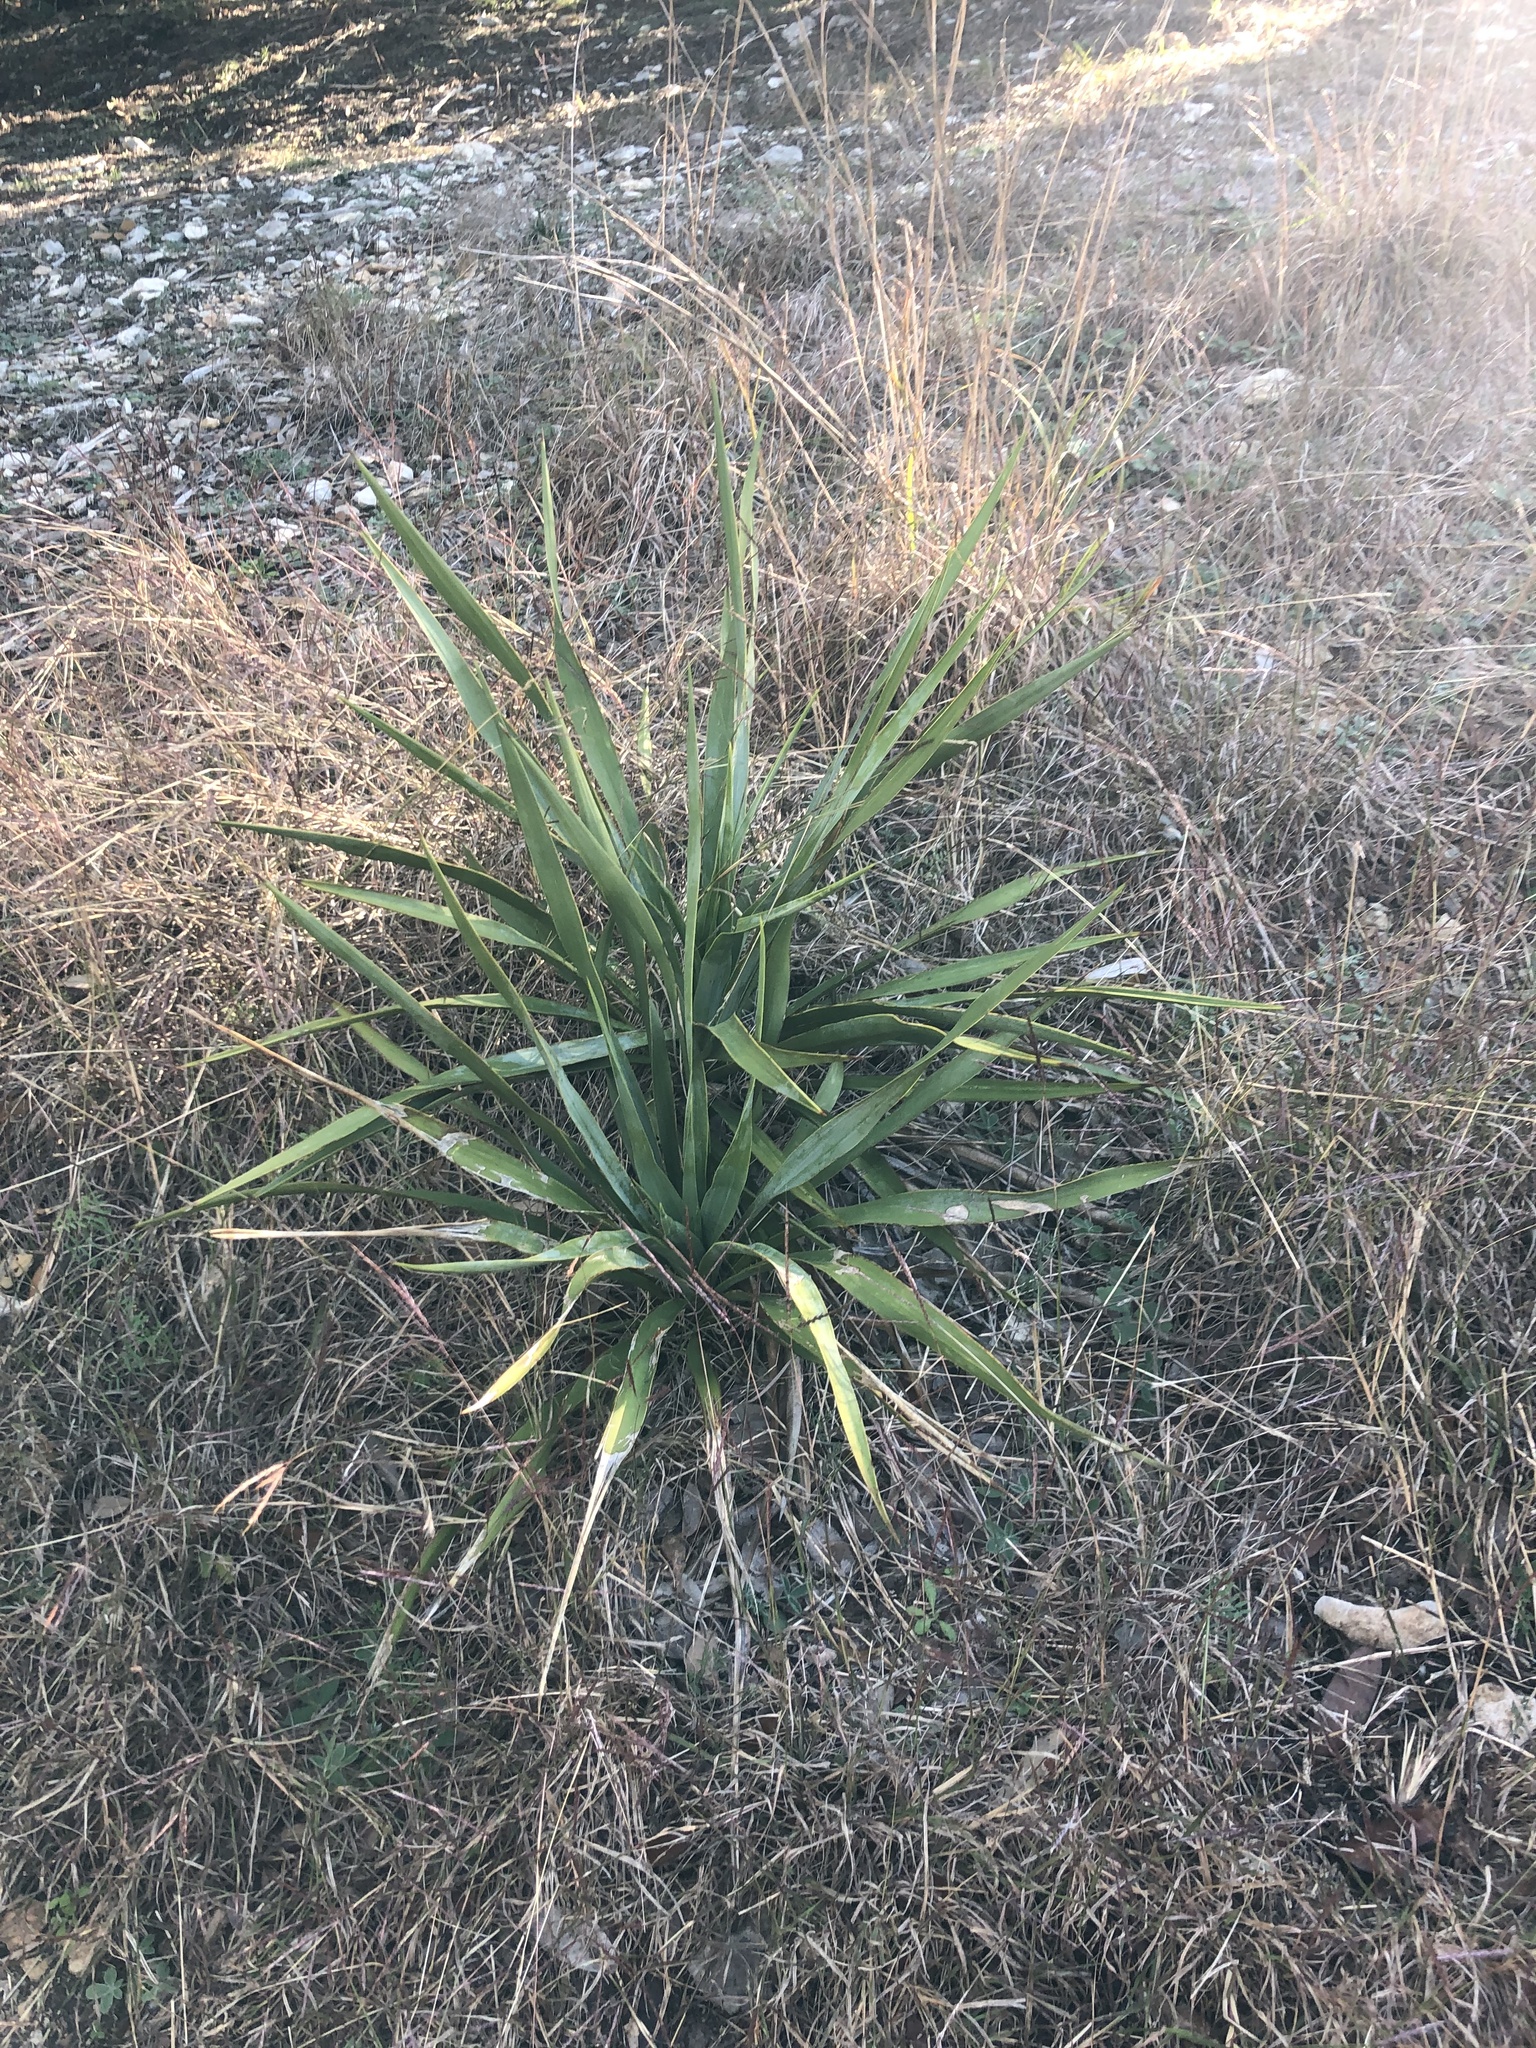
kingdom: Plantae
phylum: Tracheophyta
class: Liliopsida
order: Asparagales
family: Asparagaceae
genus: Yucca
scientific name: Yucca rupicola
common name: Twisted-leaf spanish-dagger
